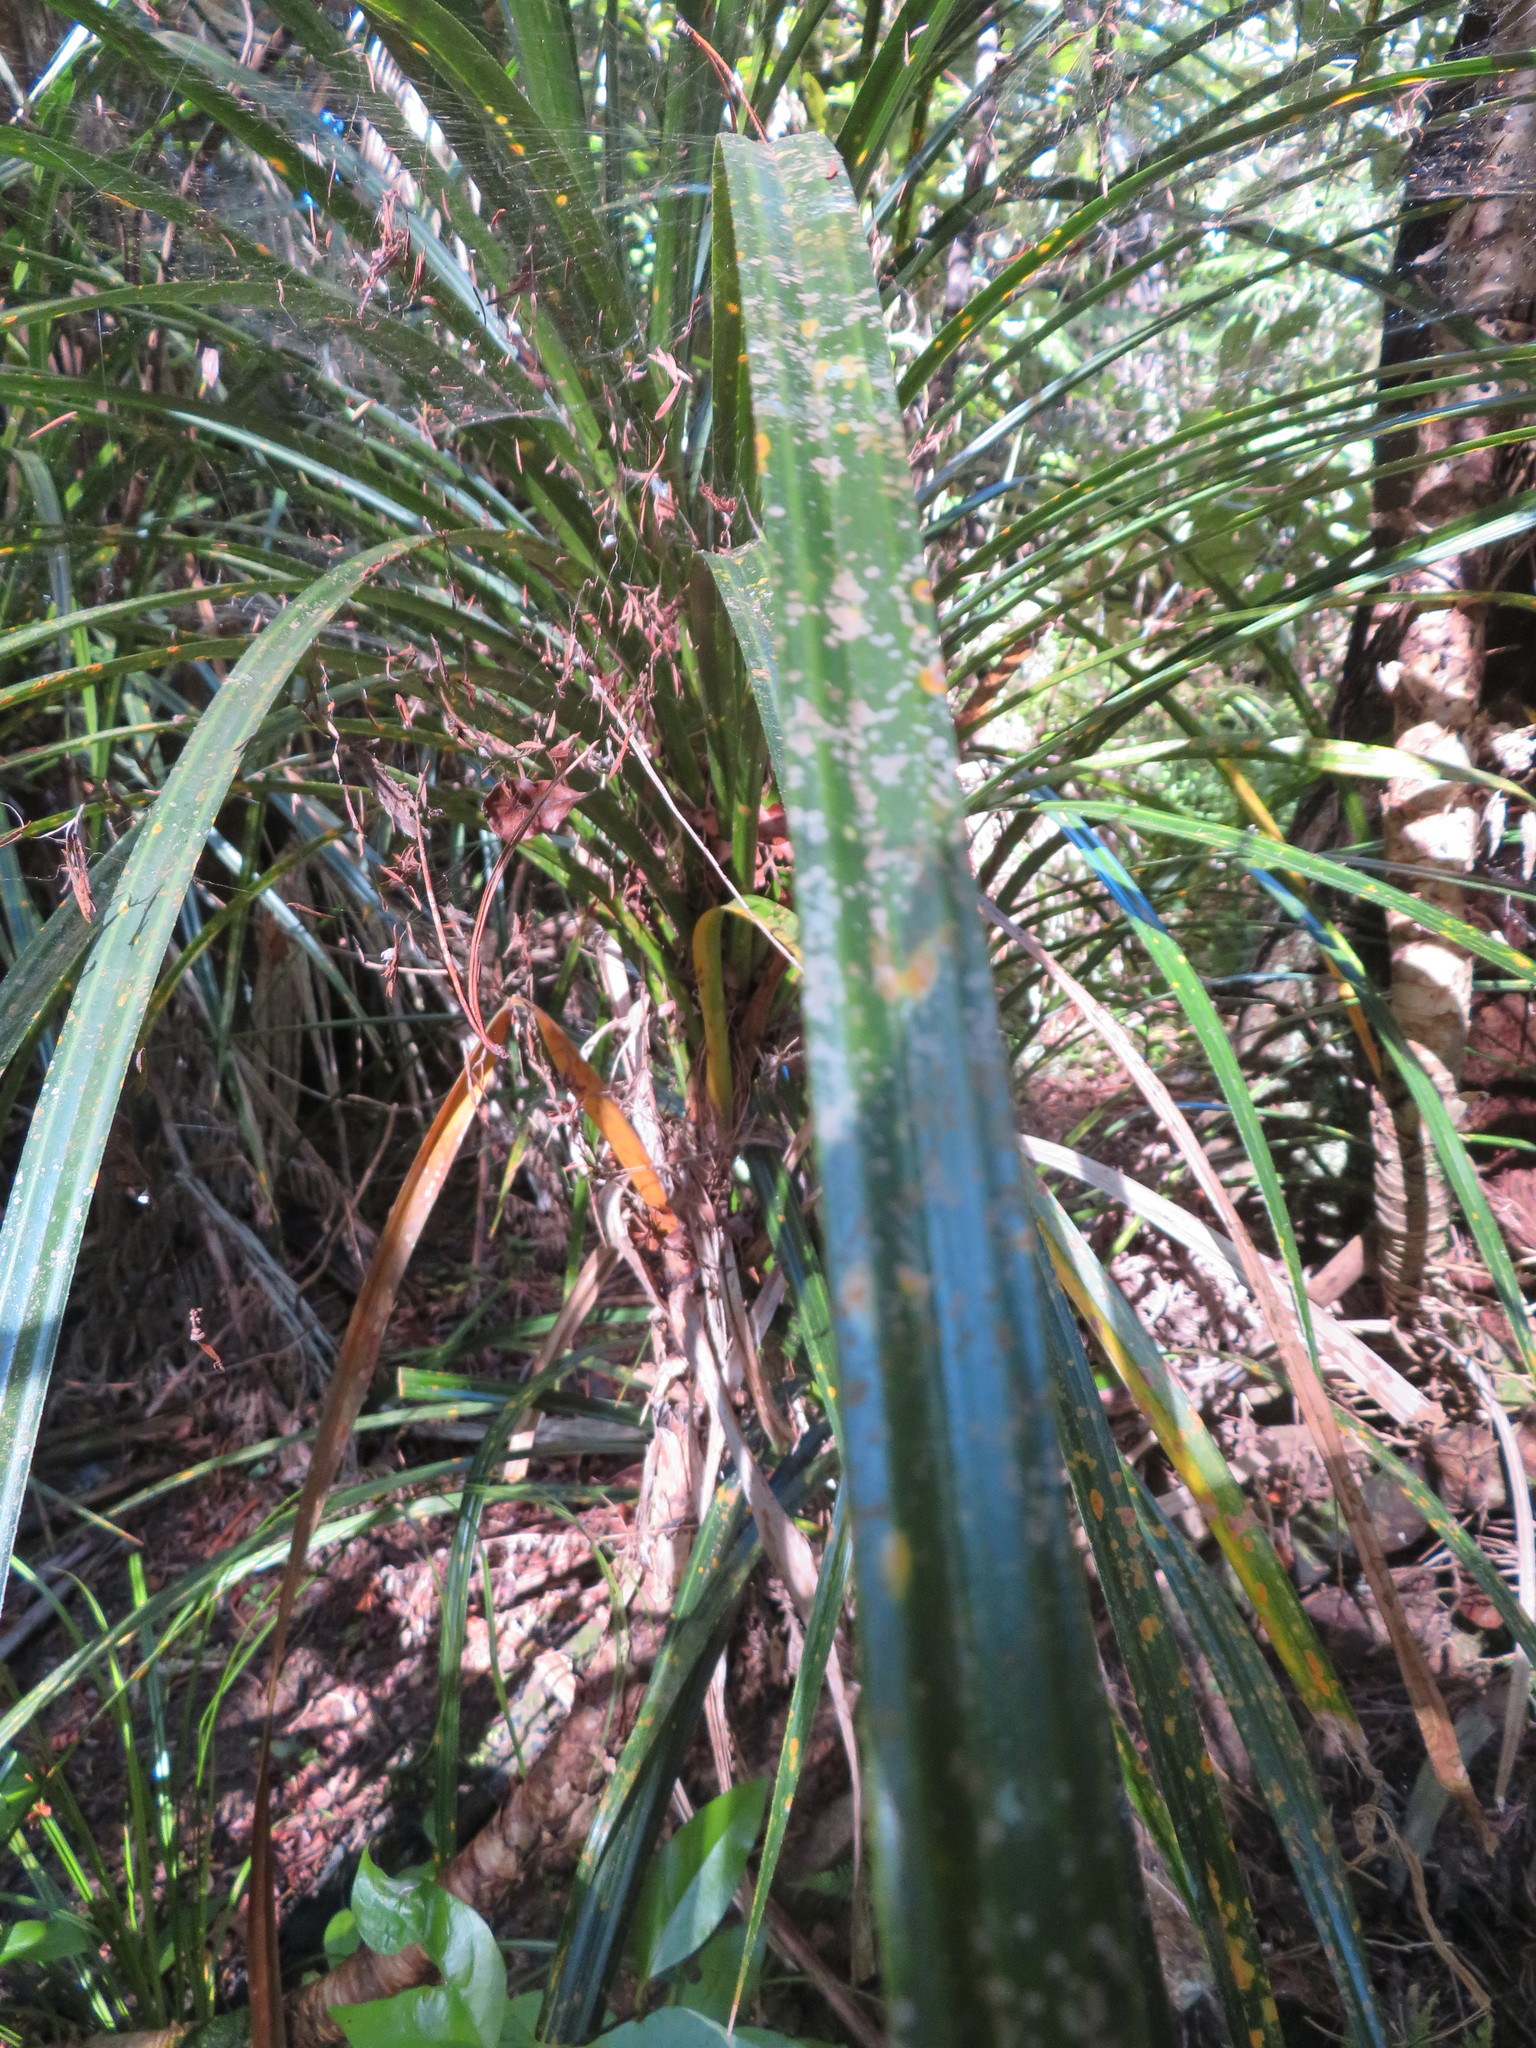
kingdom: Plantae
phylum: Tracheophyta
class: Liliopsida
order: Pandanales
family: Pandanaceae
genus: Freycinetia
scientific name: Freycinetia banksii
